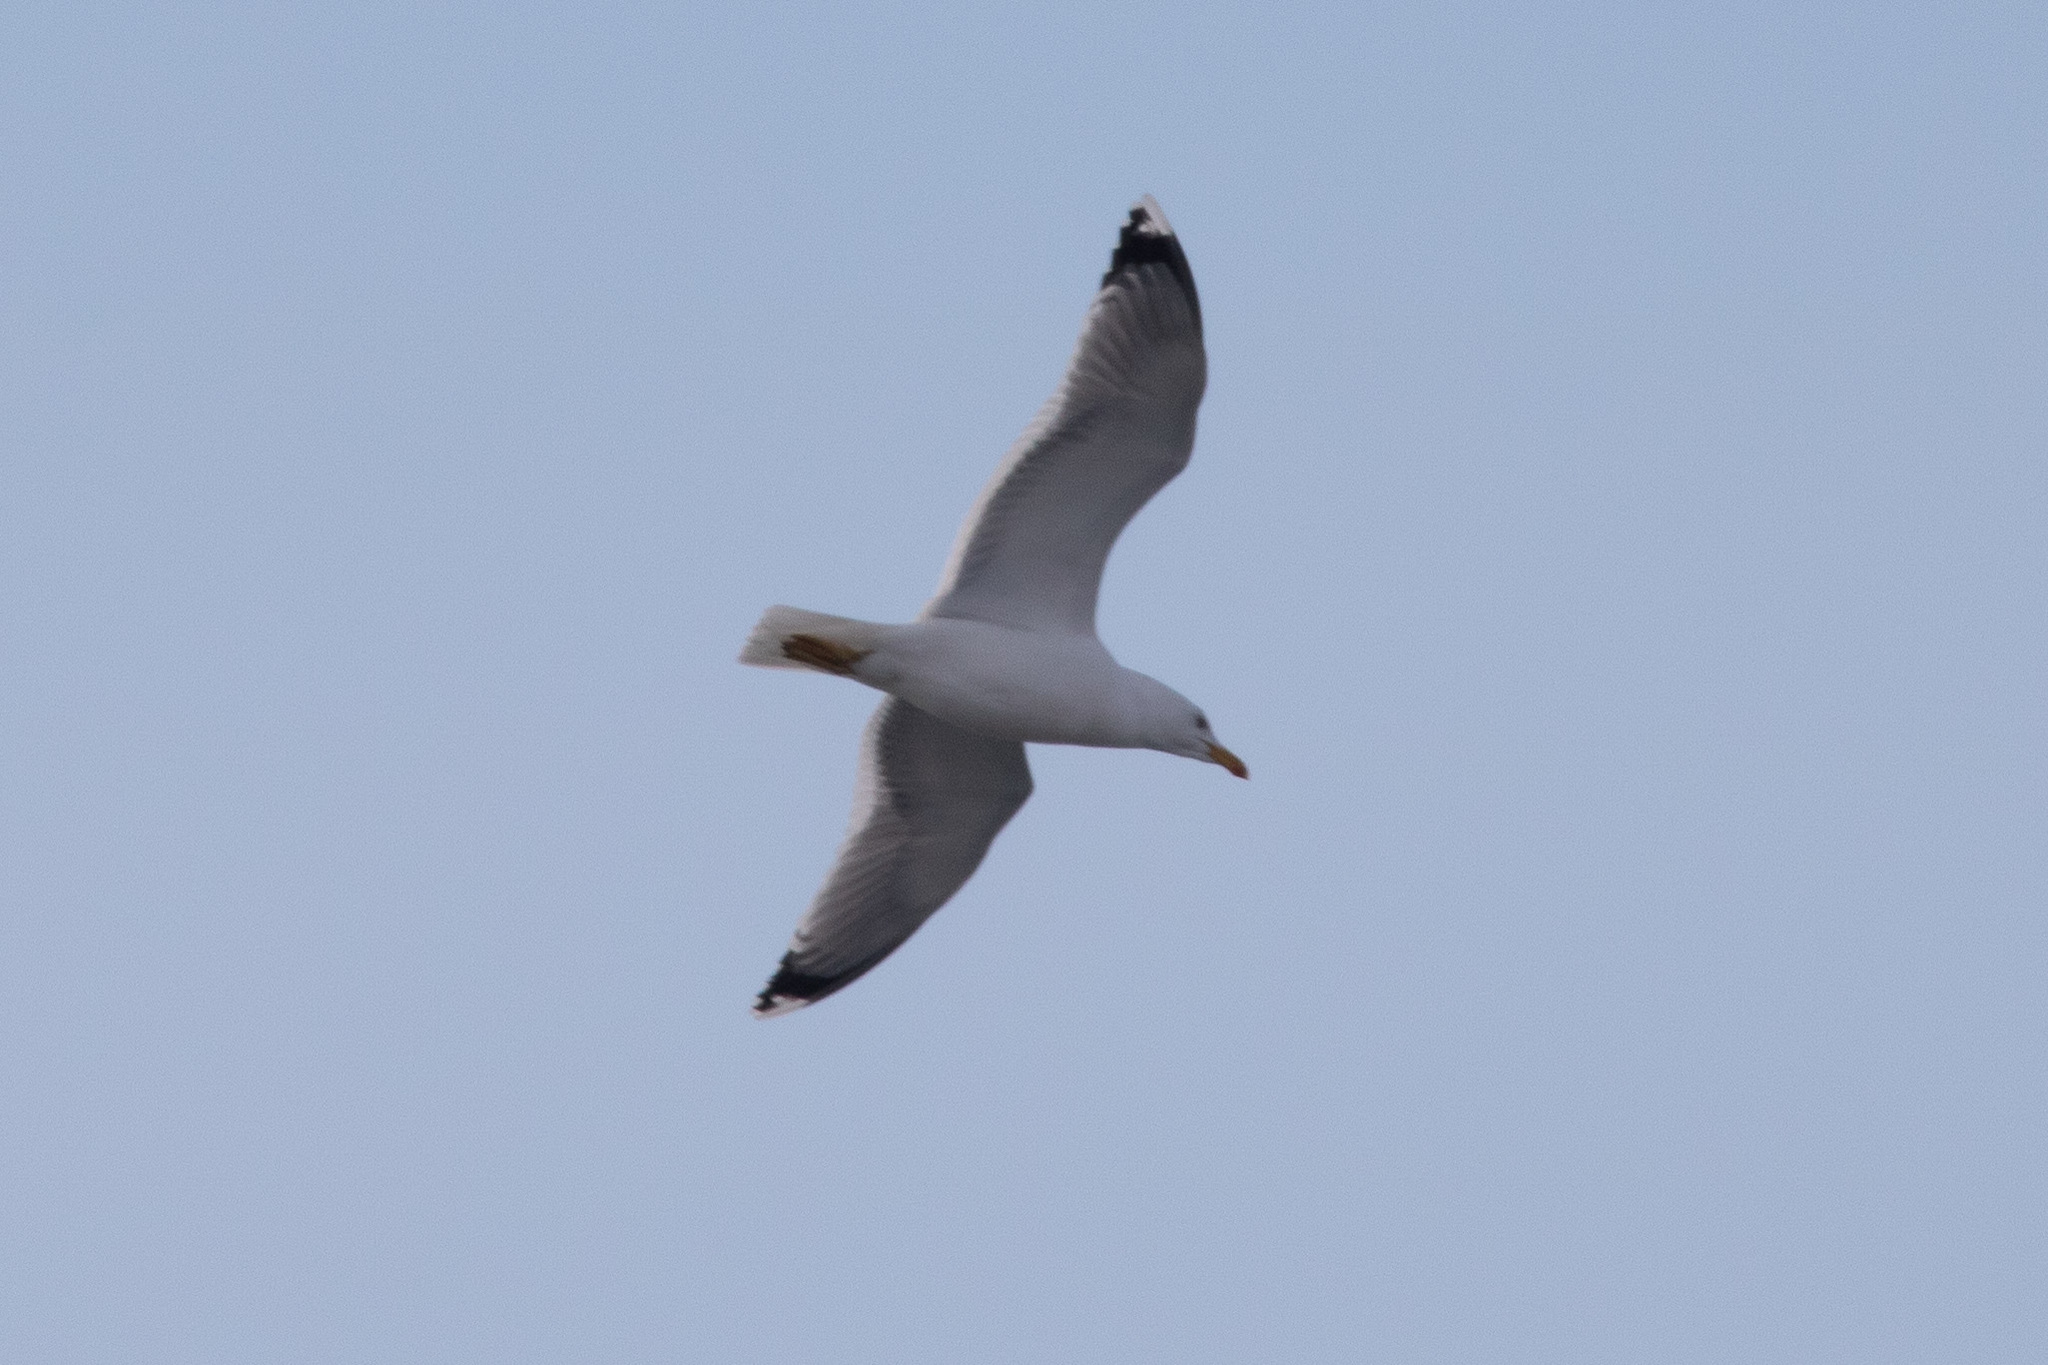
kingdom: Animalia
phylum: Chordata
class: Aves
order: Charadriiformes
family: Laridae
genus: Larus
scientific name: Larus argentatus
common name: Herring gull
